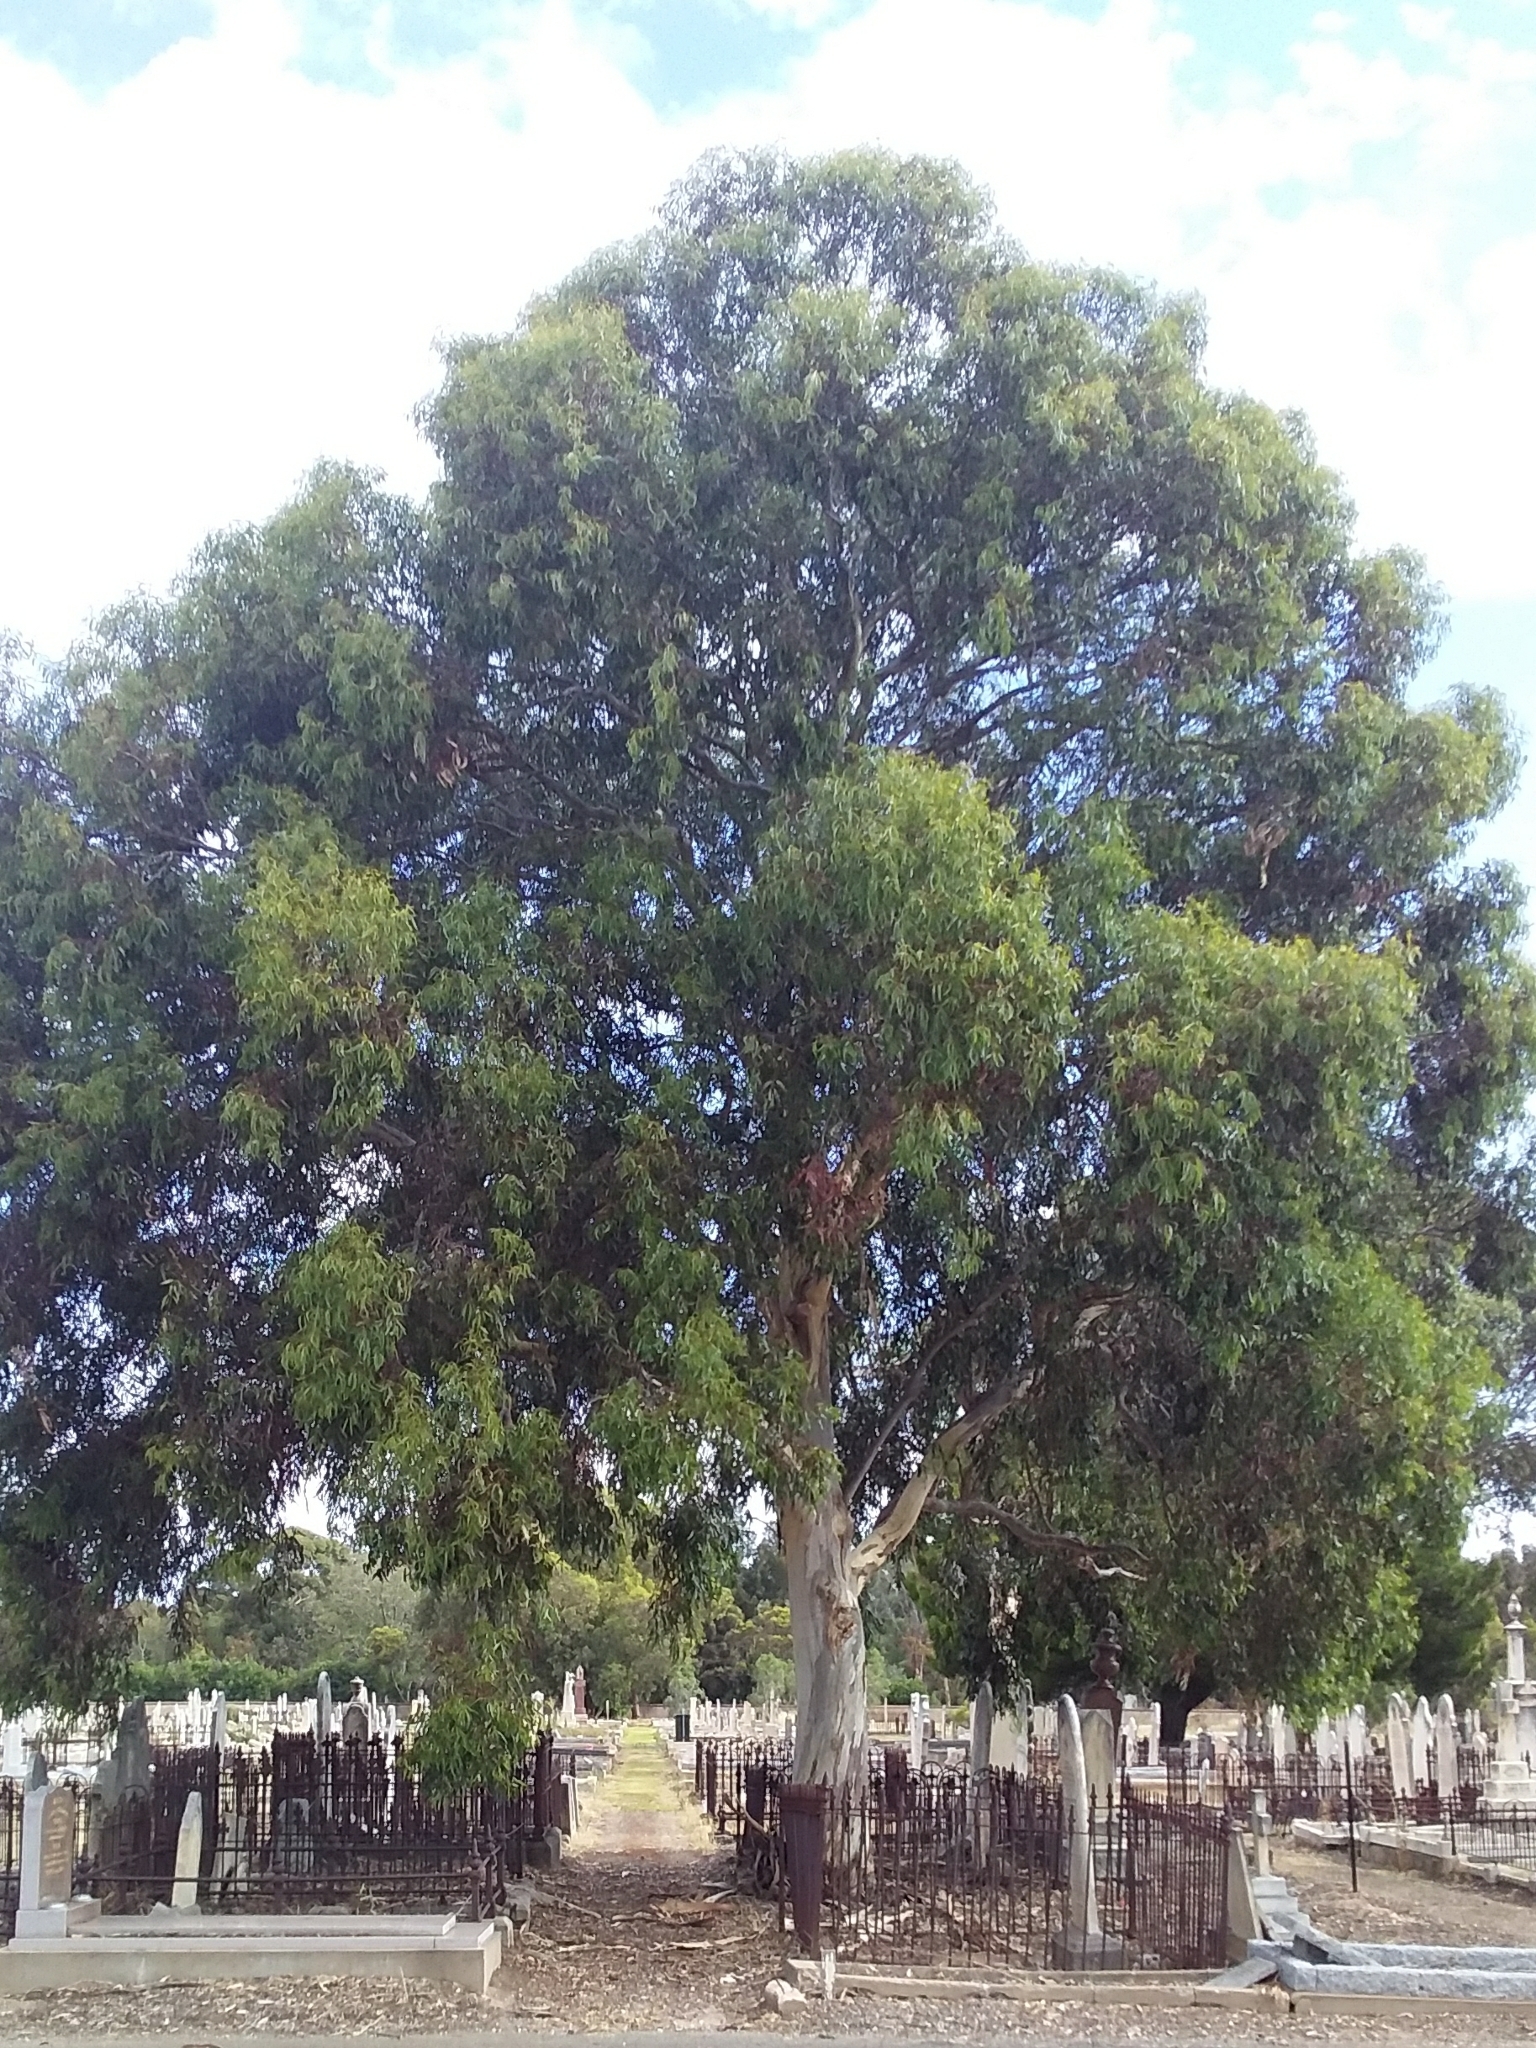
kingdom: Plantae
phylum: Tracheophyta
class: Magnoliopsida
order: Myrtales
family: Myrtaceae
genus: Eucalyptus
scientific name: Eucalyptus leucoxylon
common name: Blue gum
